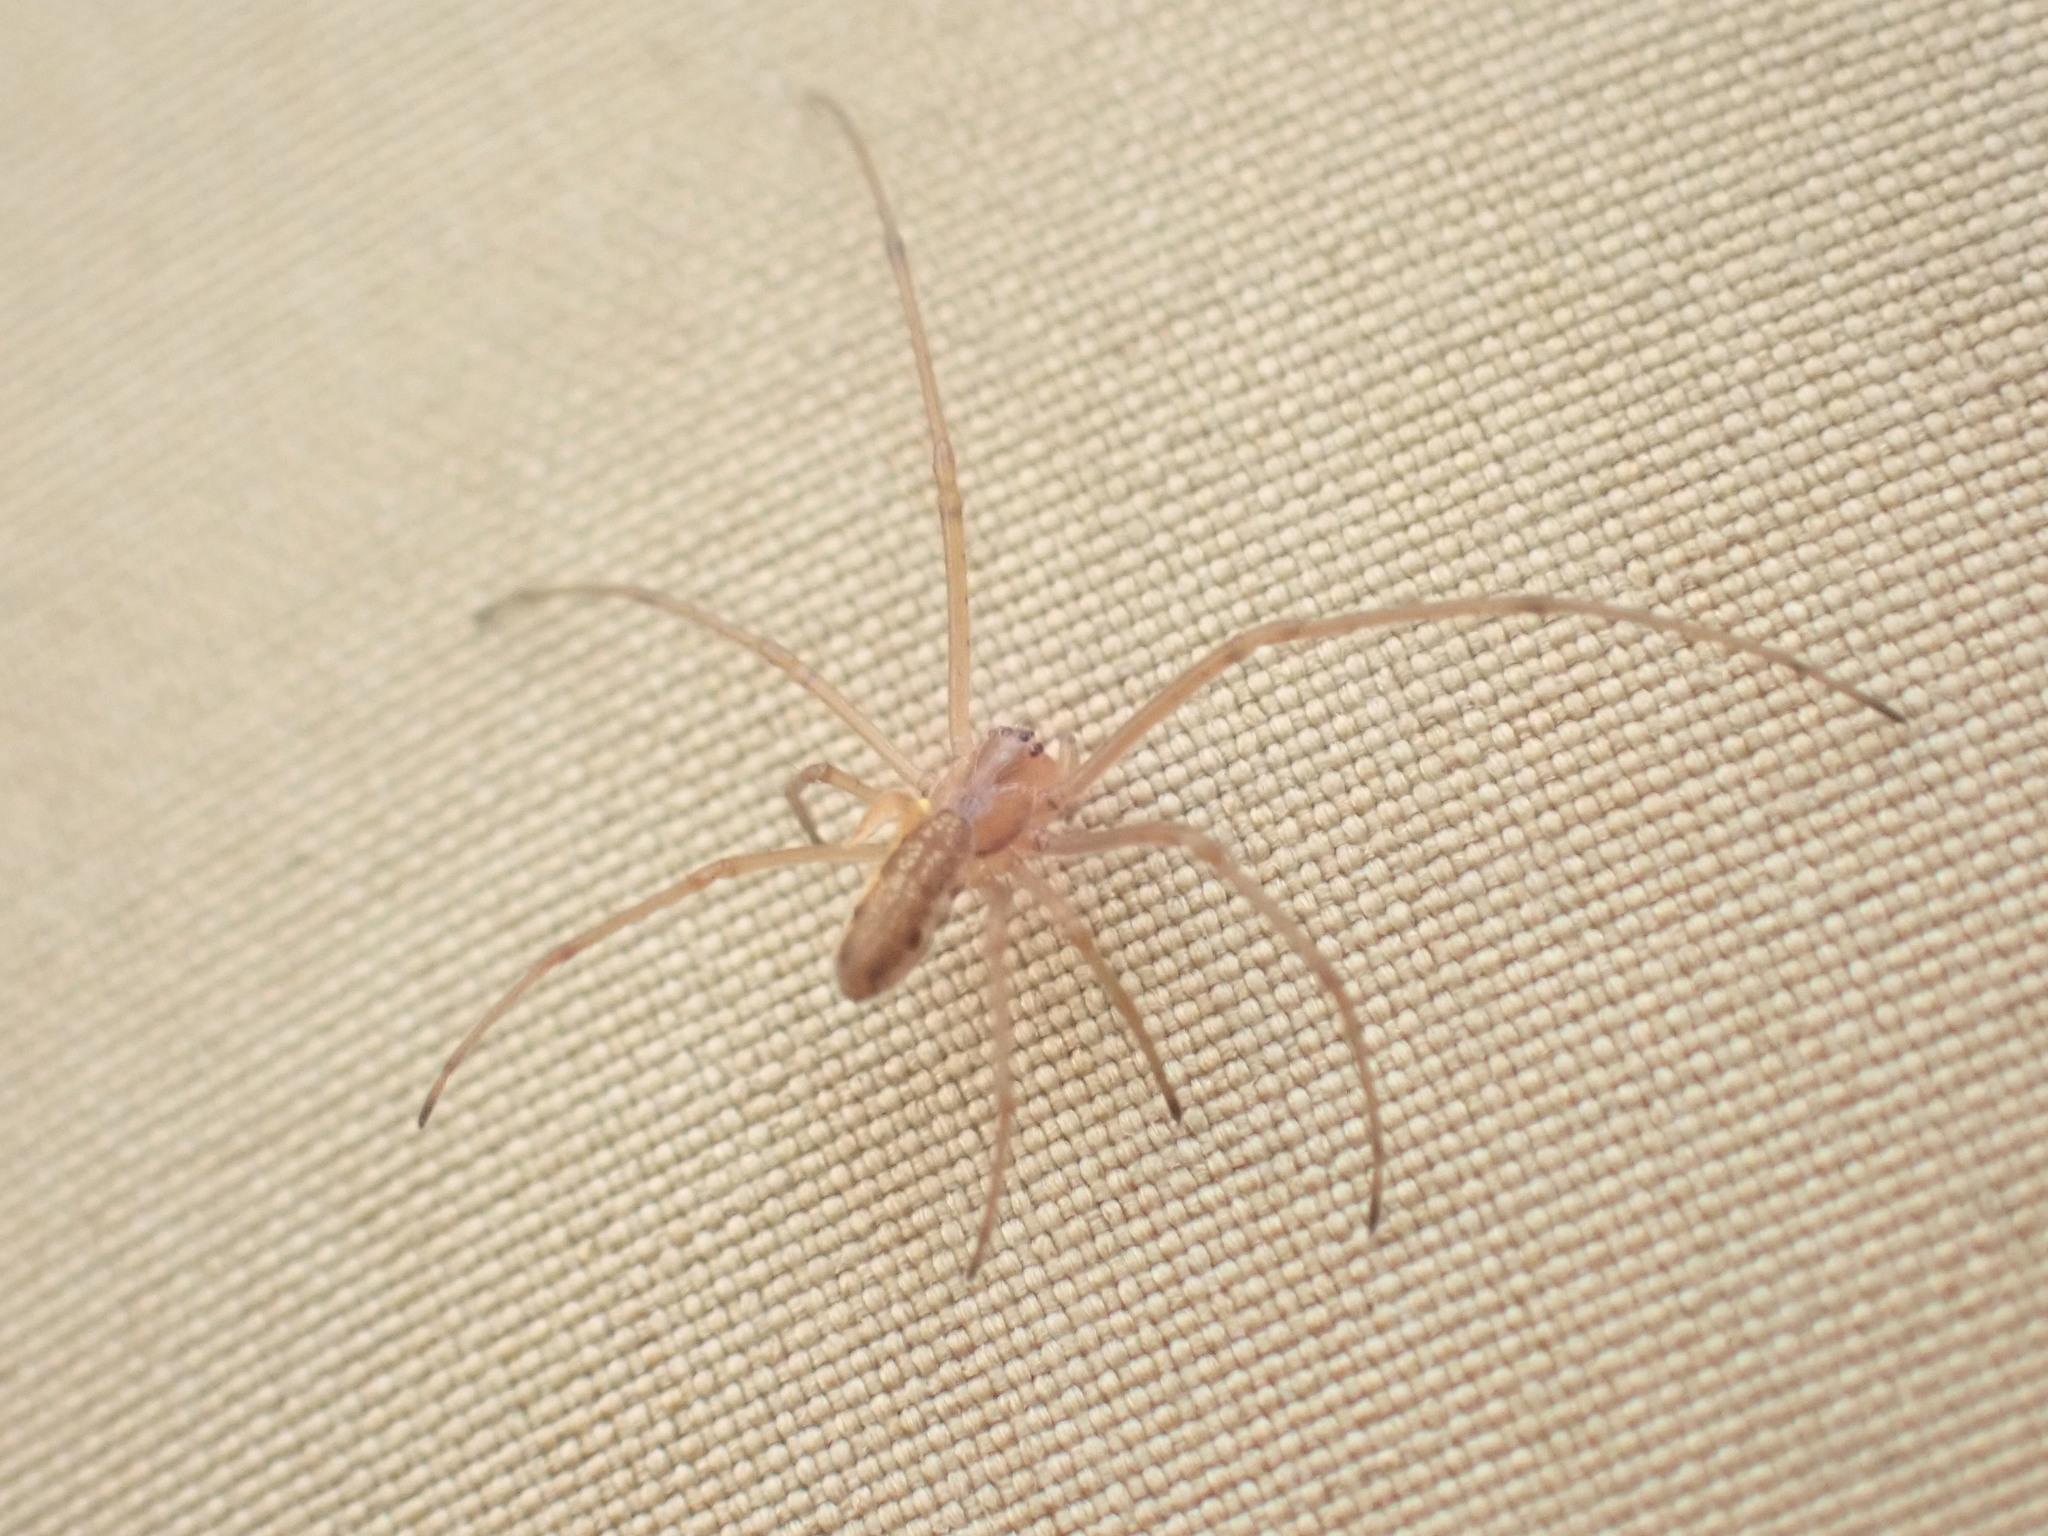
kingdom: Animalia
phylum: Arthropoda
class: Arachnida
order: Araneae
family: Tetragnathidae
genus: Tetragnatha
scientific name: Tetragnatha
